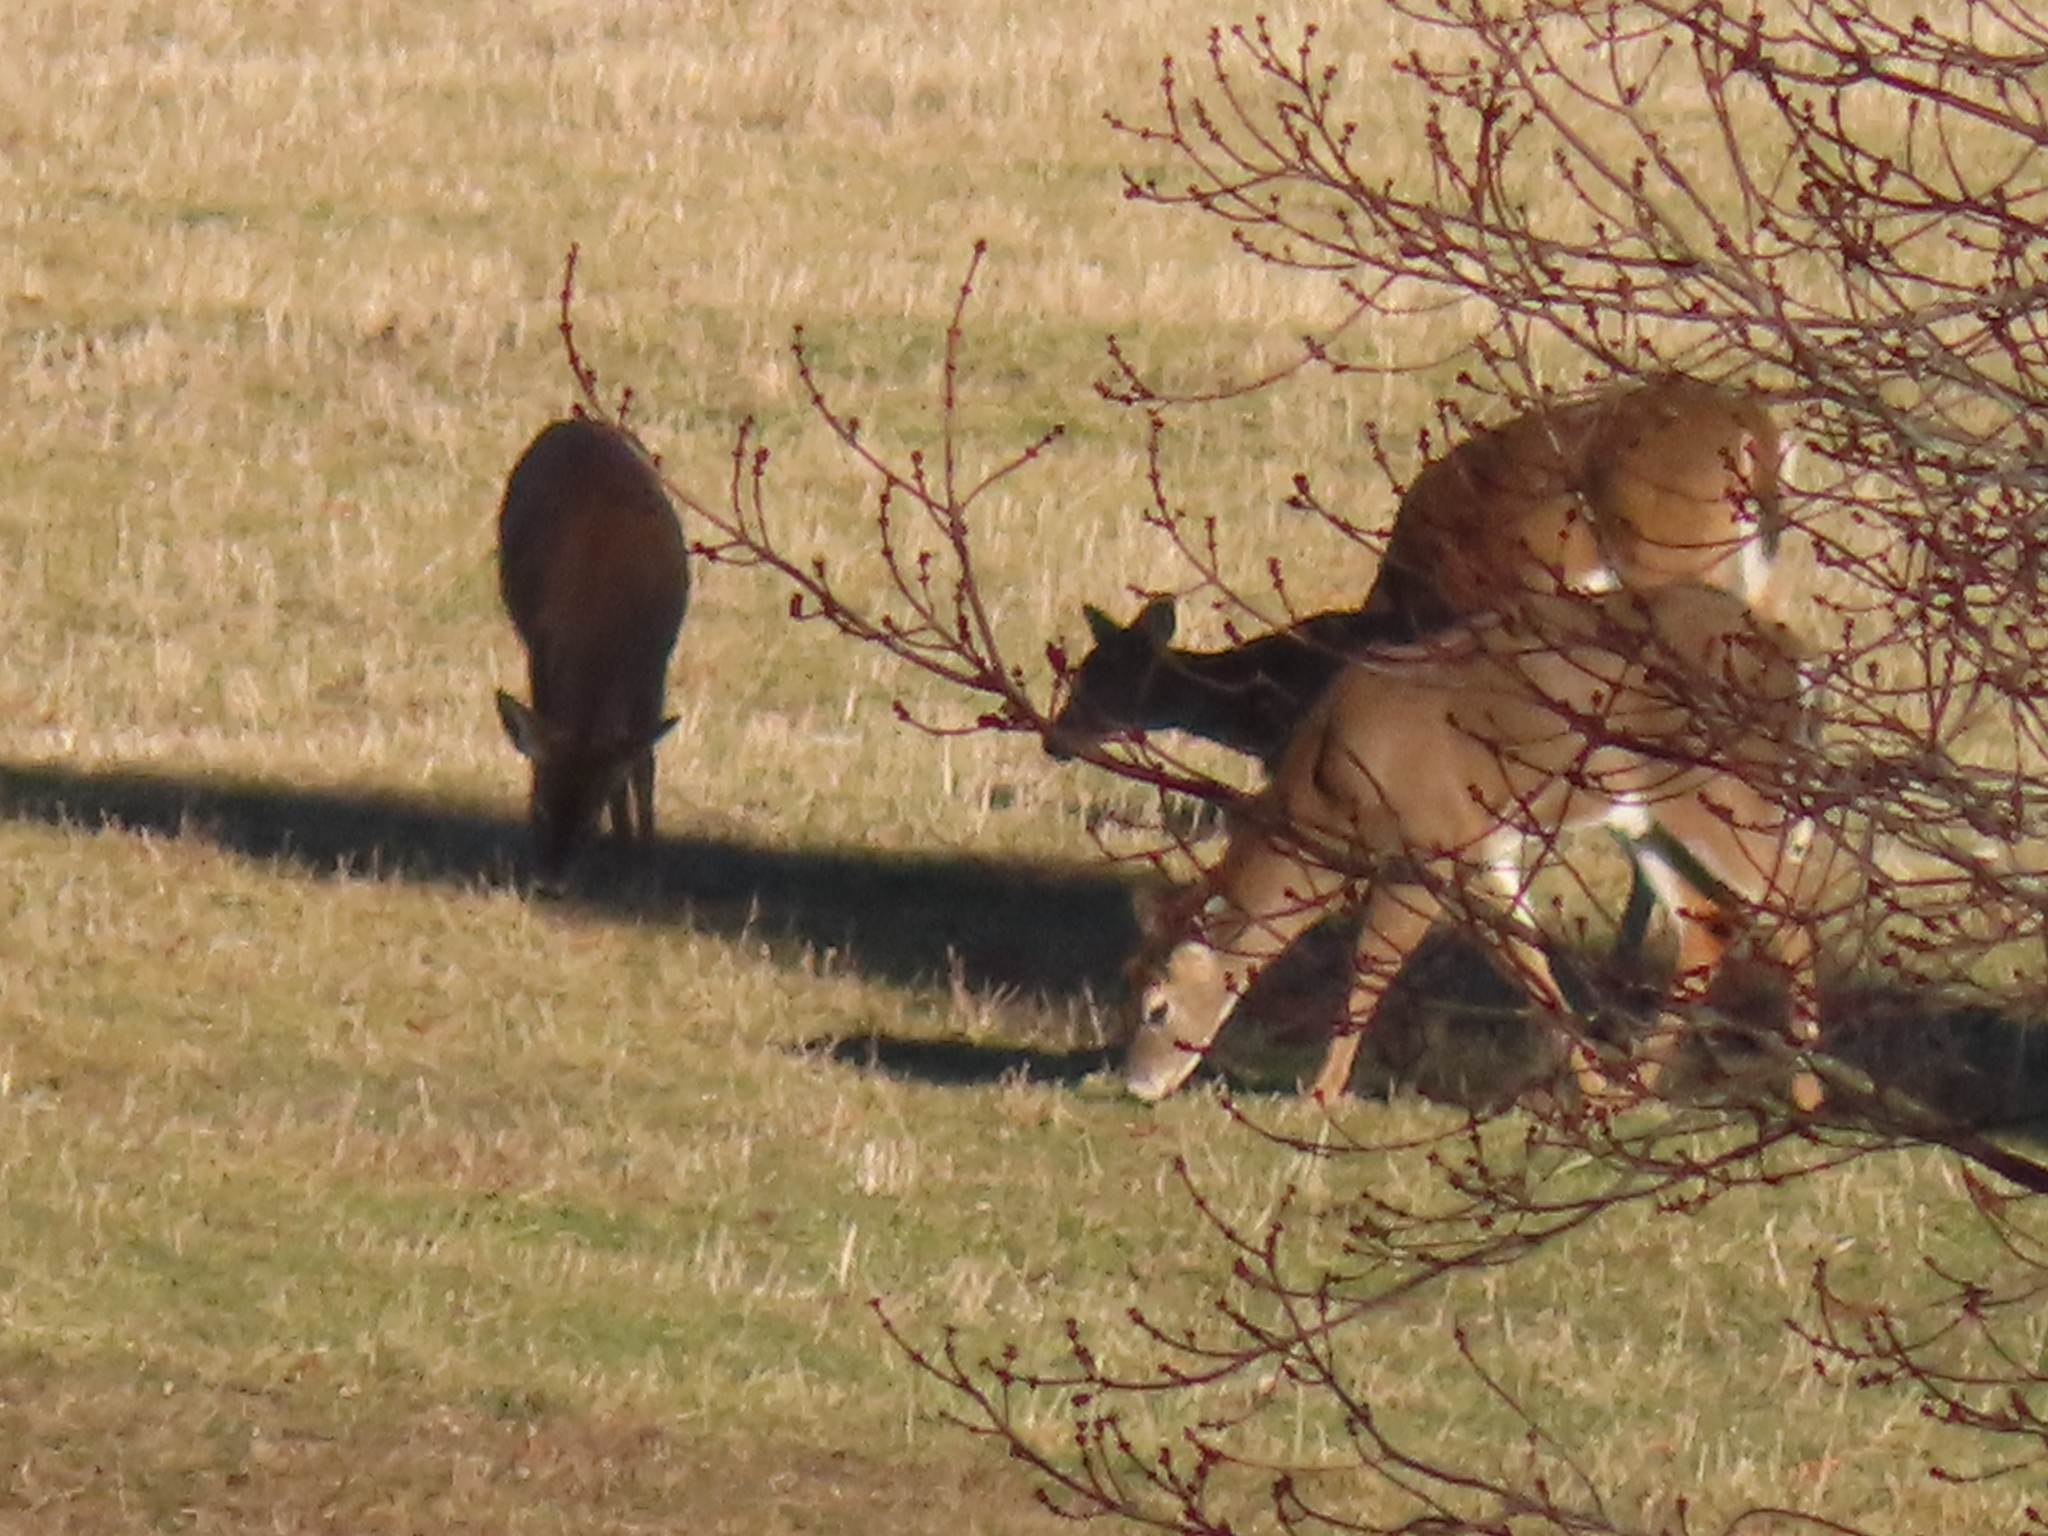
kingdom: Animalia
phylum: Chordata
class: Mammalia
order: Artiodactyla
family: Cervidae
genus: Odocoileus
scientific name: Odocoileus virginianus
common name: White-tailed deer
